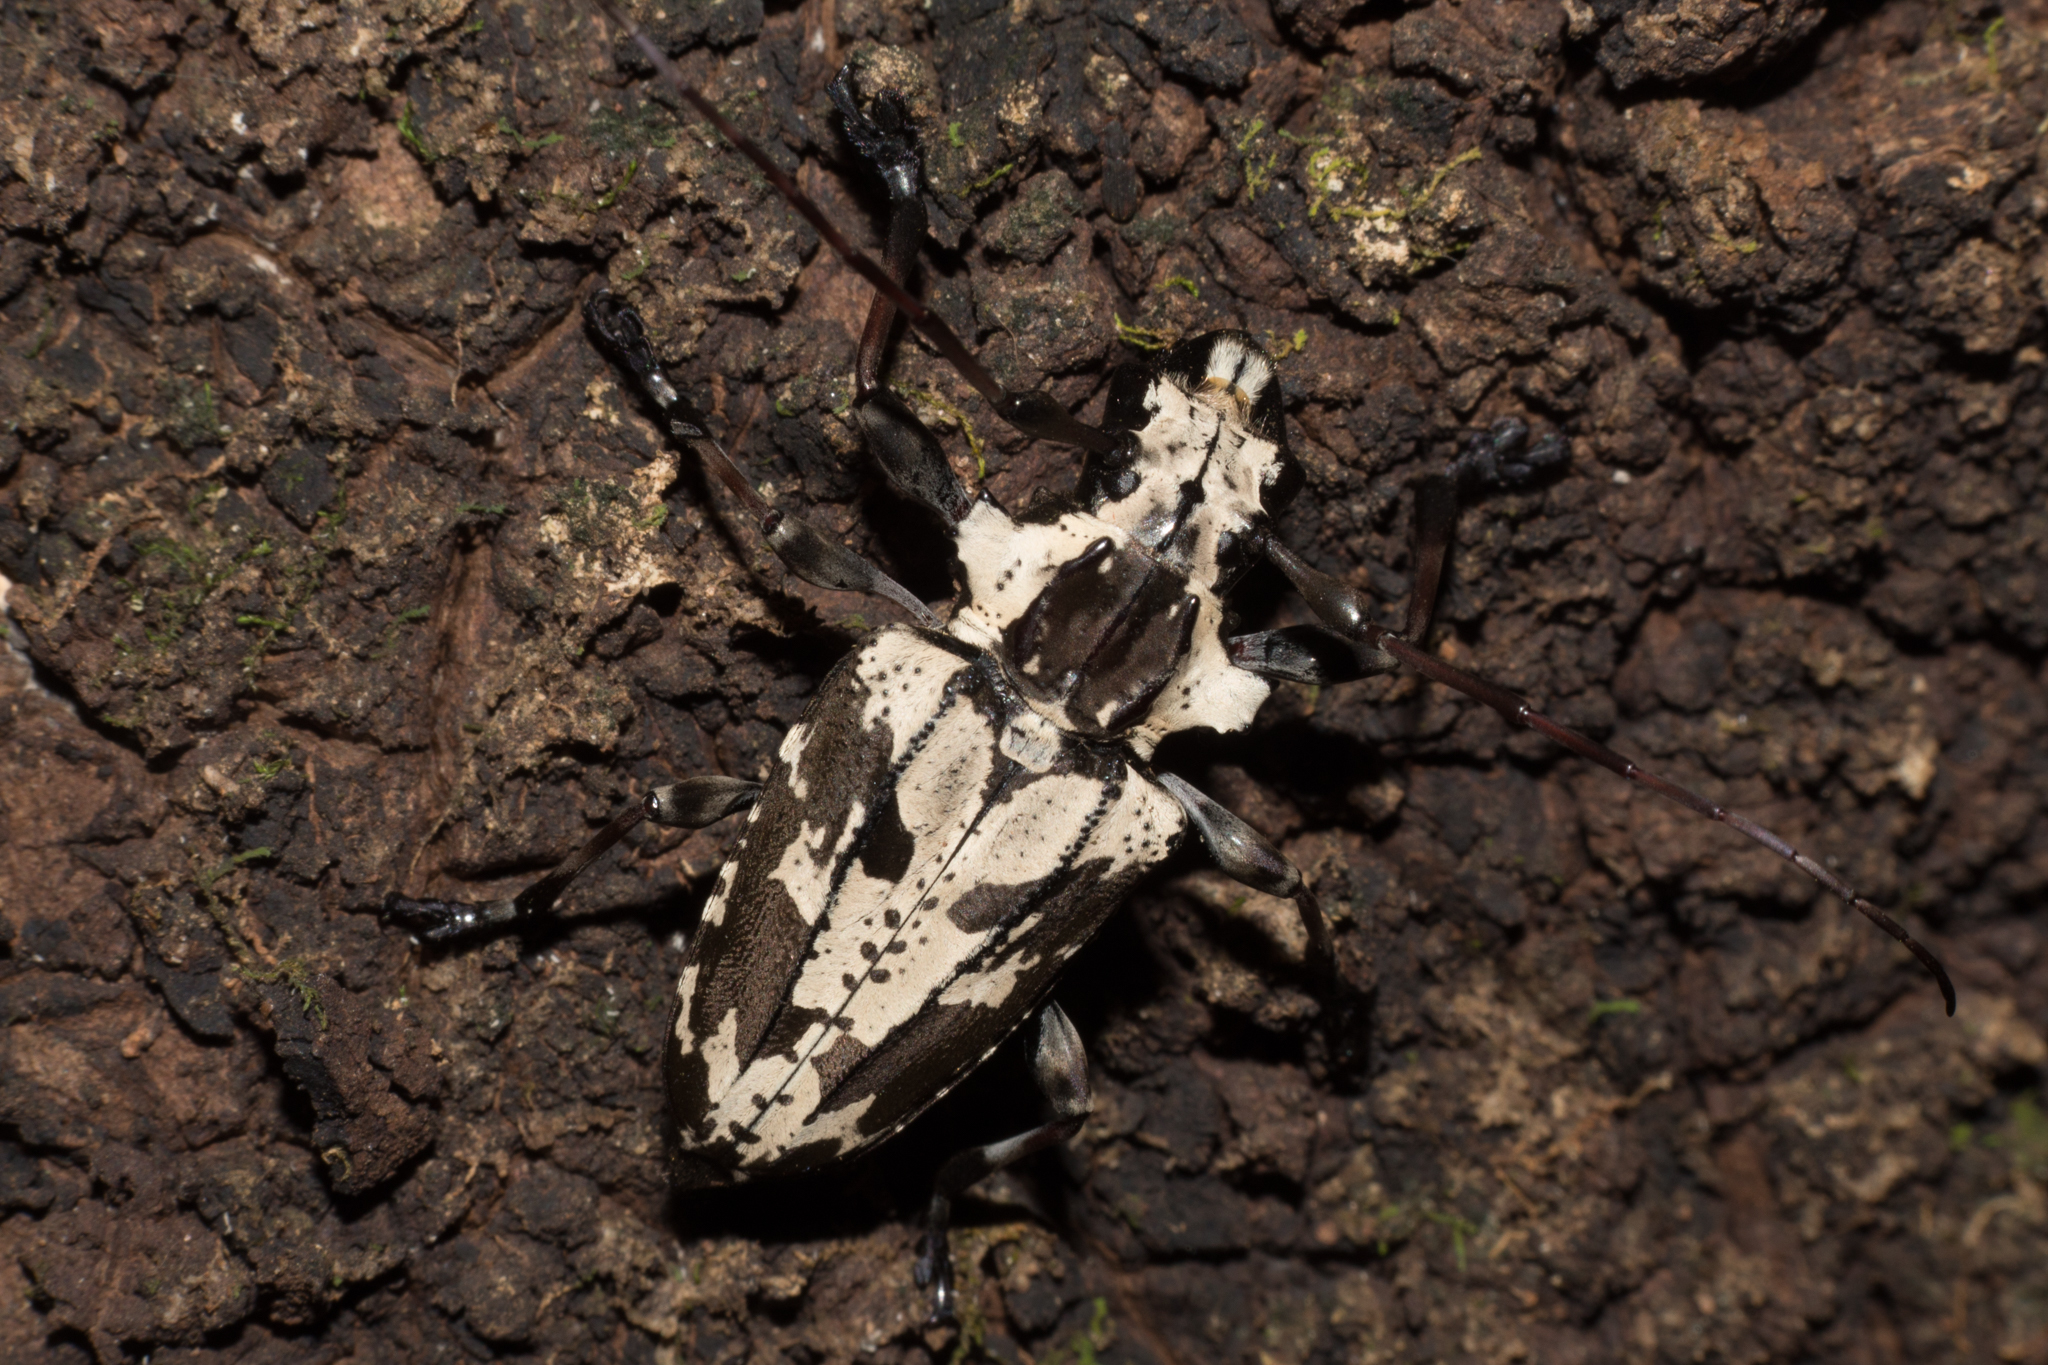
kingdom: Animalia
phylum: Arthropoda
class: Insecta
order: Coleoptera
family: Cerambycidae
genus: Steirastoma
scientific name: Steirastoma marmoratum
